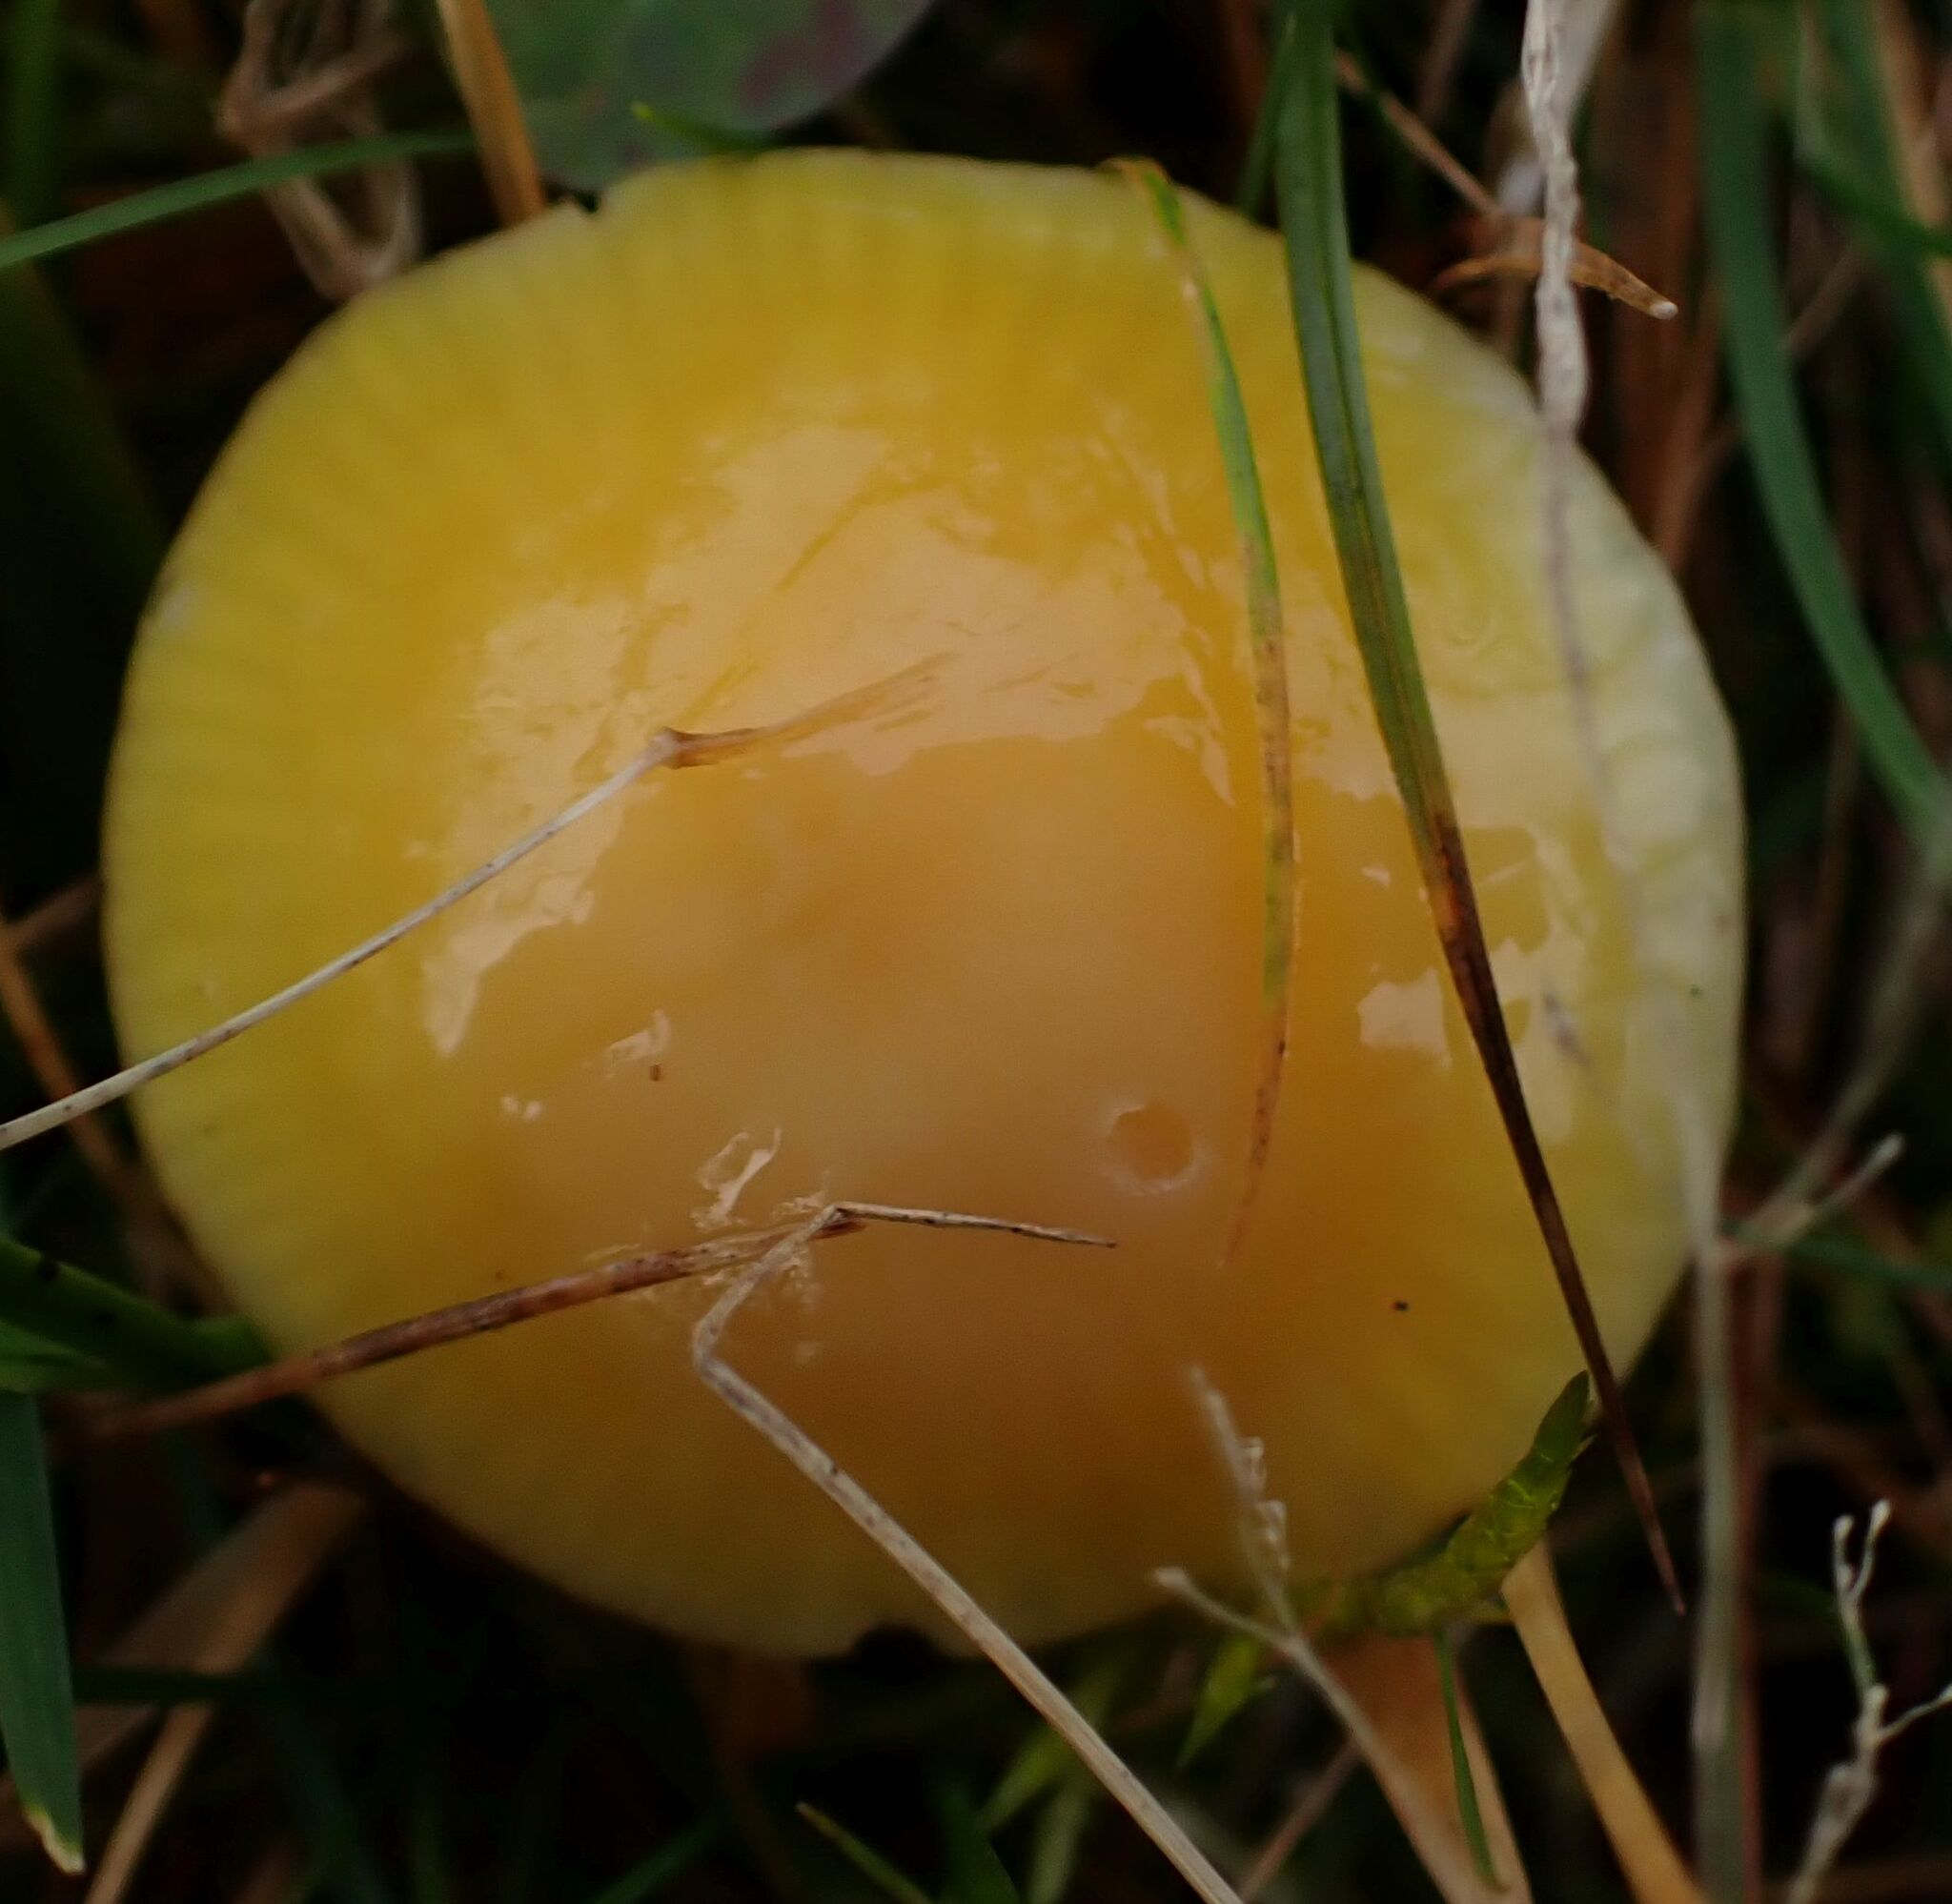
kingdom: Fungi
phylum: Basidiomycota
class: Agaricomycetes
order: Agaricales
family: Hygrophoraceae
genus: Hygrocybe
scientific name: Hygrocybe chlorophana
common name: Golden waxcap
